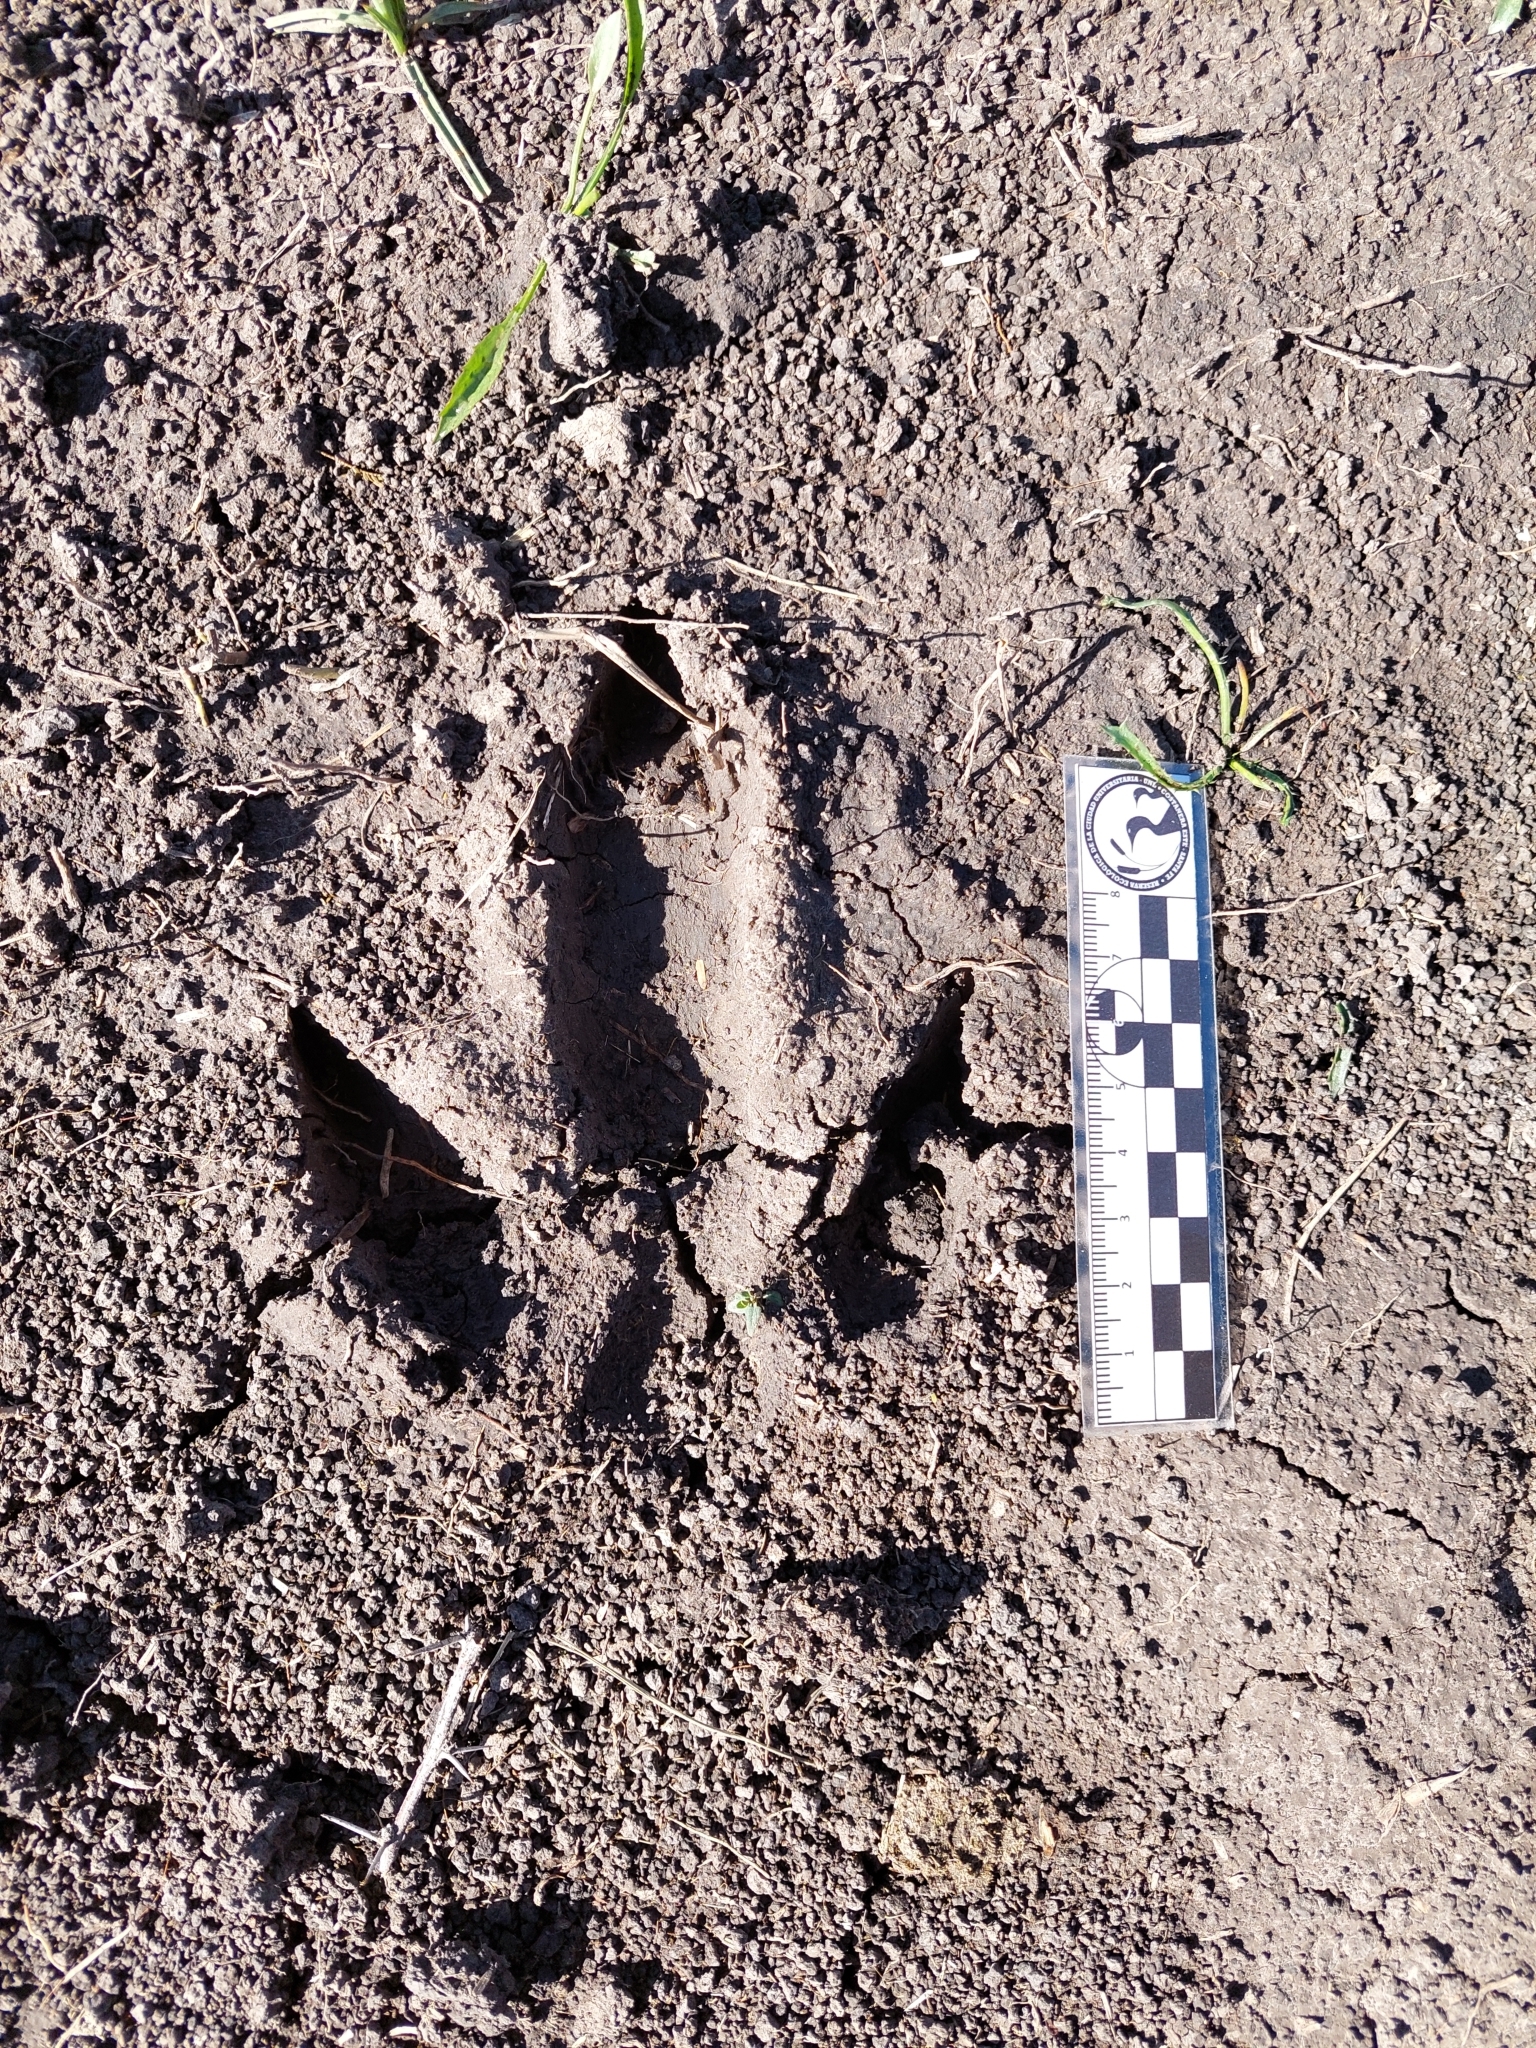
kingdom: Animalia
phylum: Chordata
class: Aves
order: Rheiformes
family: Rheidae
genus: Rhea
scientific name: Rhea americana
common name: Greater rhea
